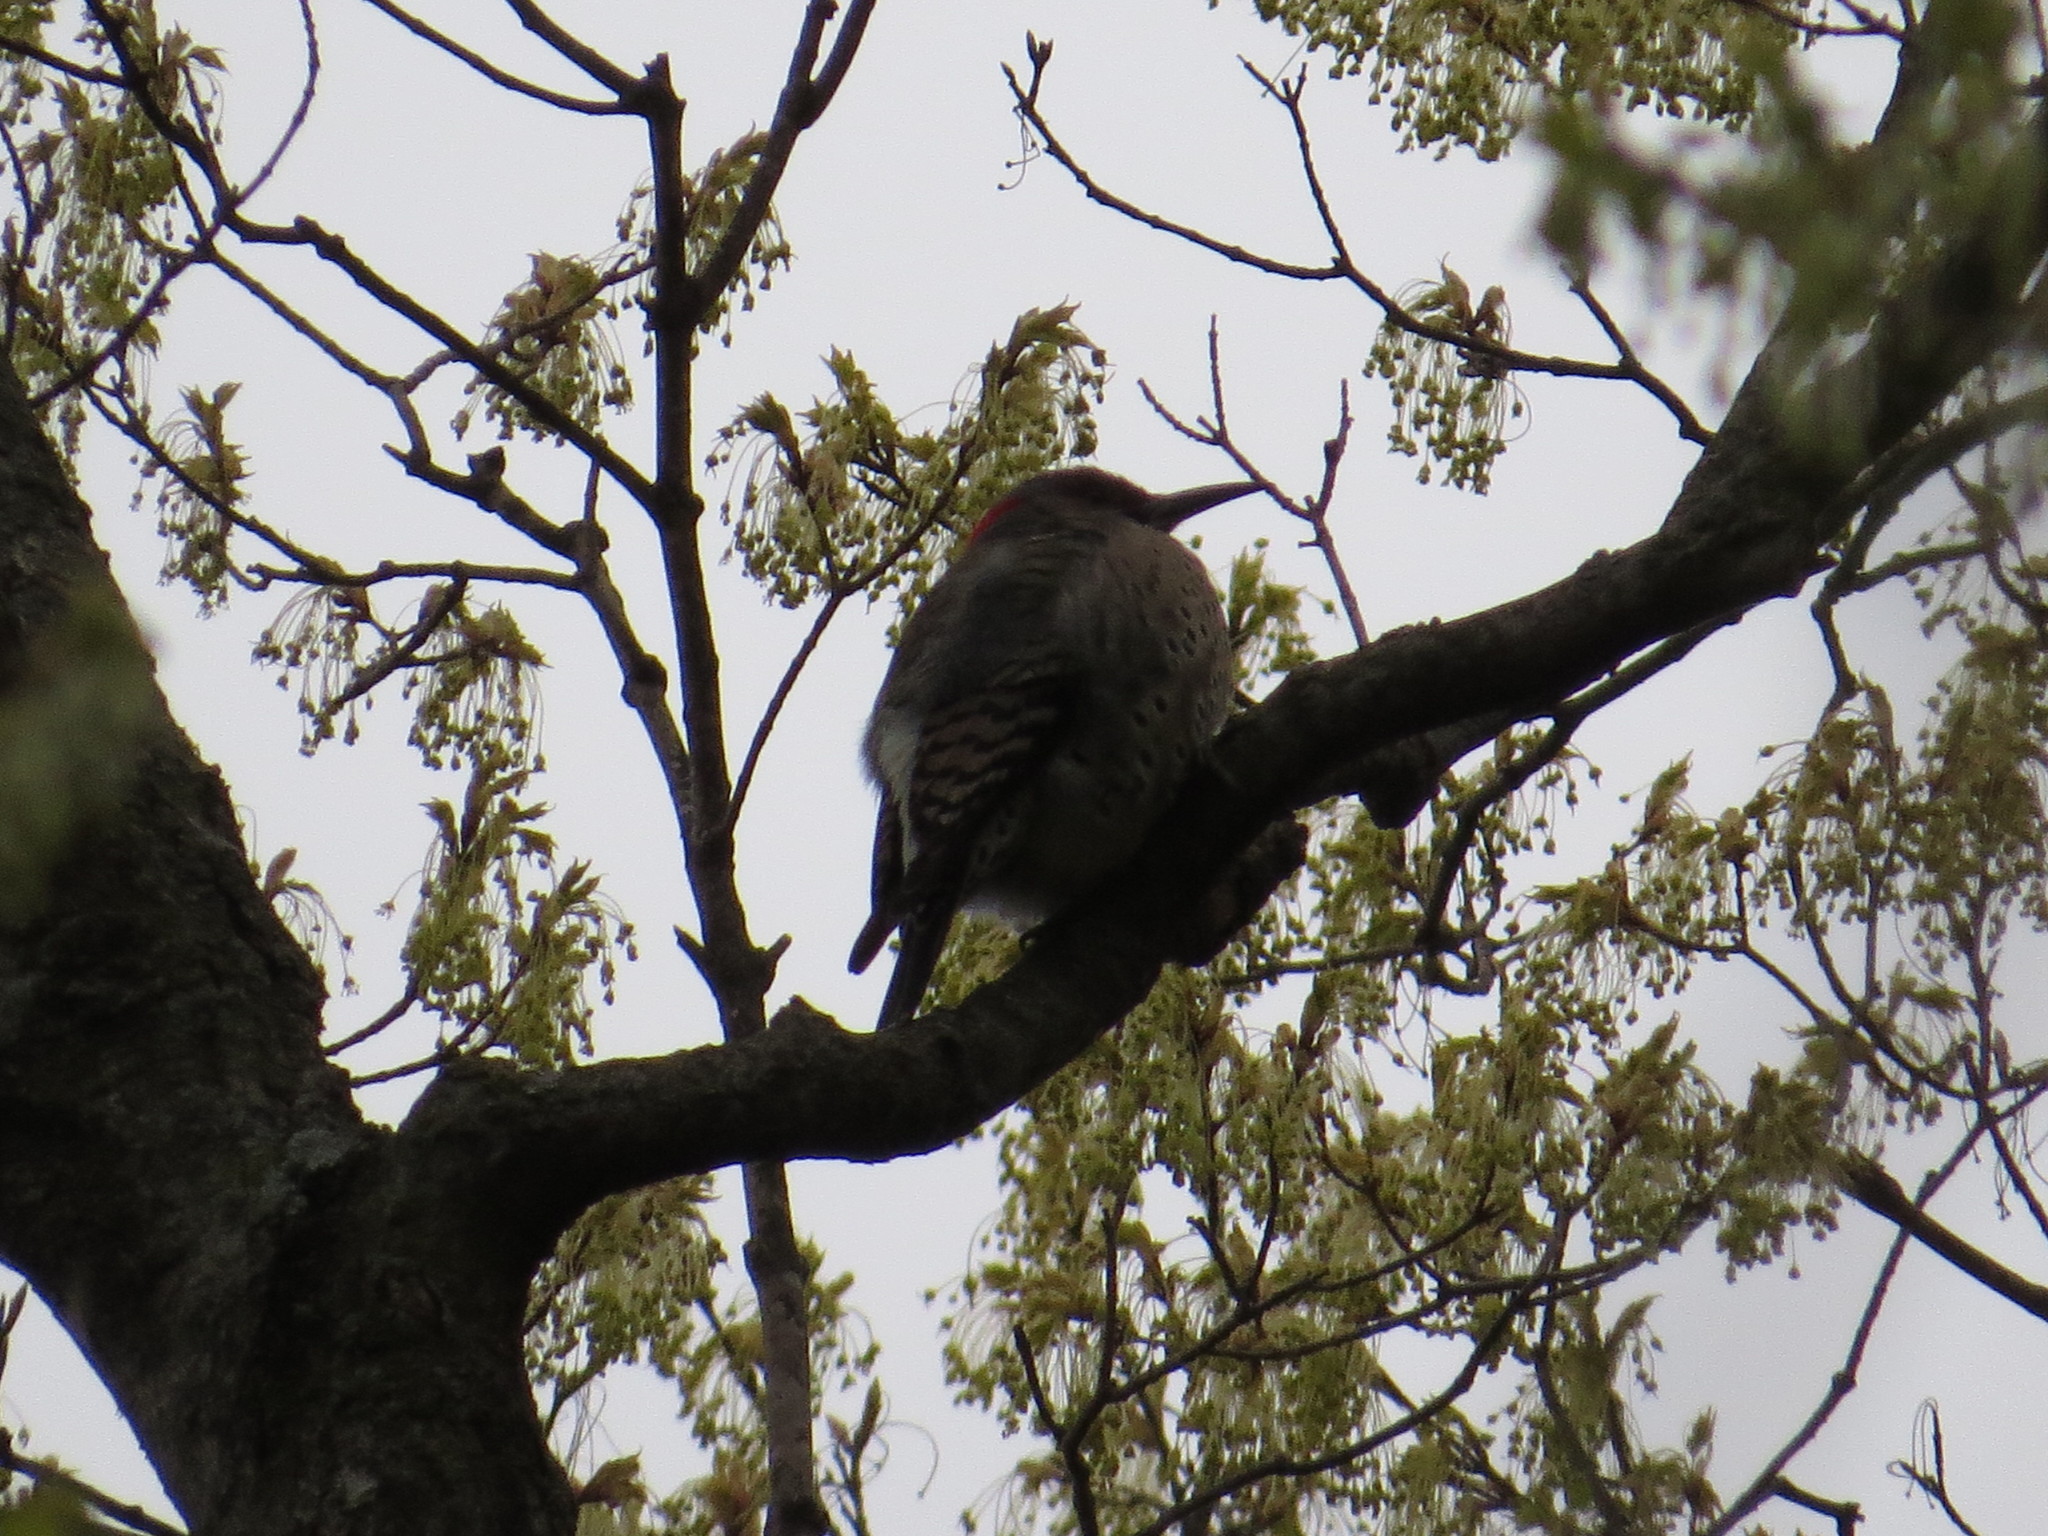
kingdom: Animalia
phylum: Chordata
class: Aves
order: Piciformes
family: Picidae
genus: Colaptes
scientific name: Colaptes auratus
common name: Northern flicker
